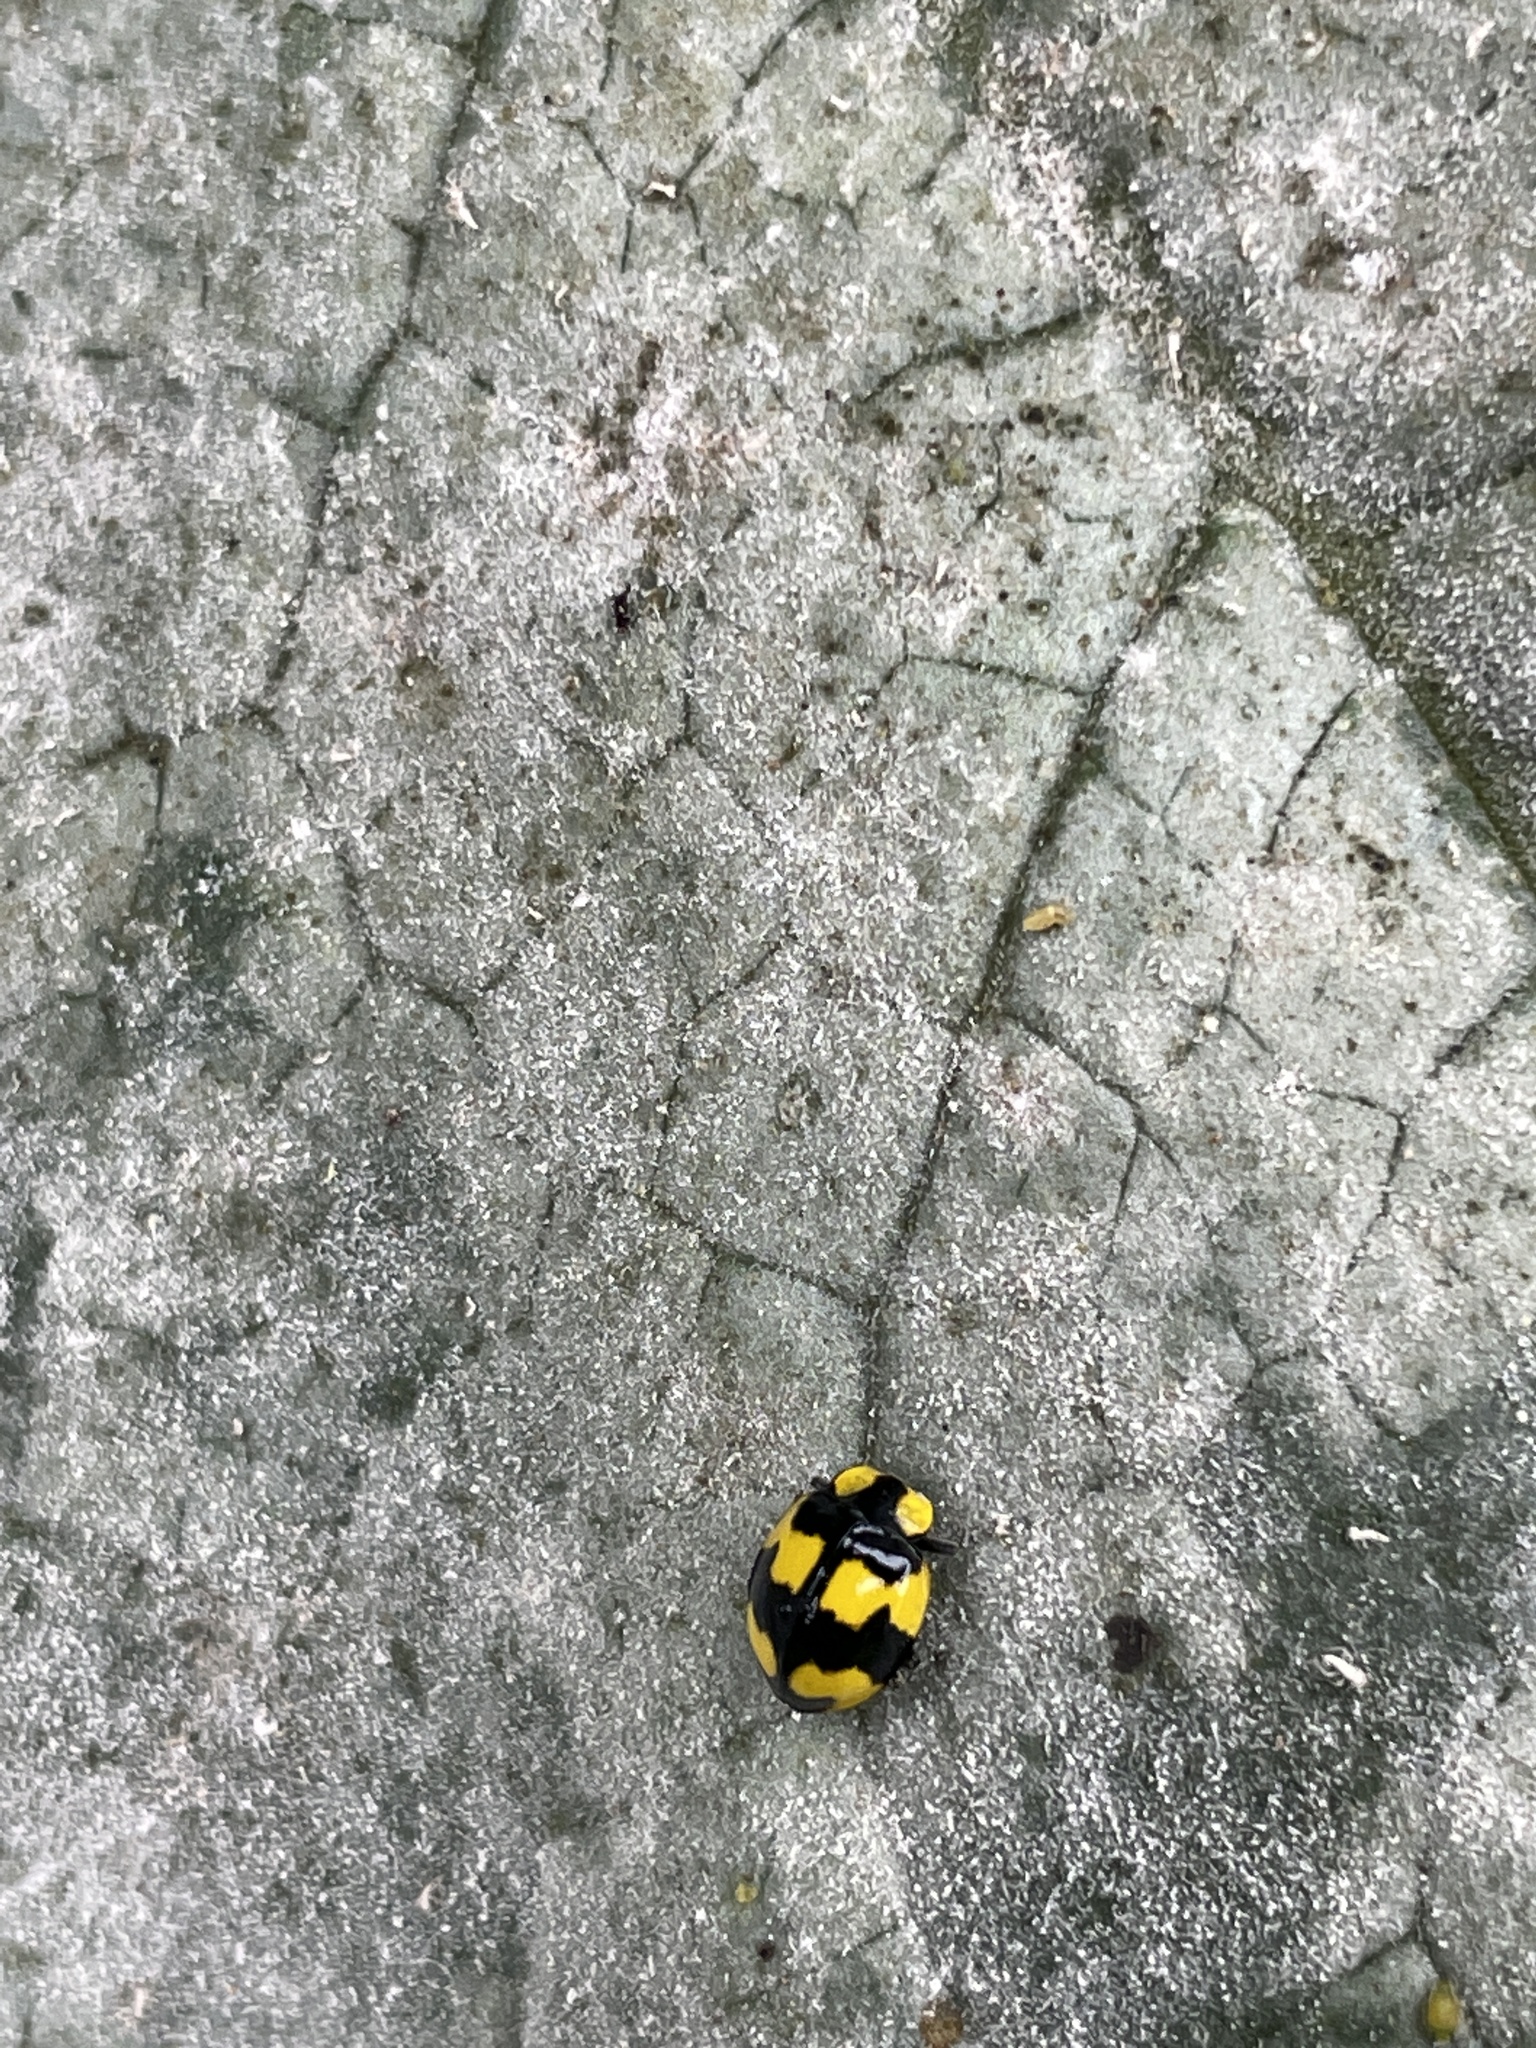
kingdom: Animalia
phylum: Arthropoda
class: Insecta
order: Coleoptera
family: Coccinellidae
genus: Illeis
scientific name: Illeis galbula
